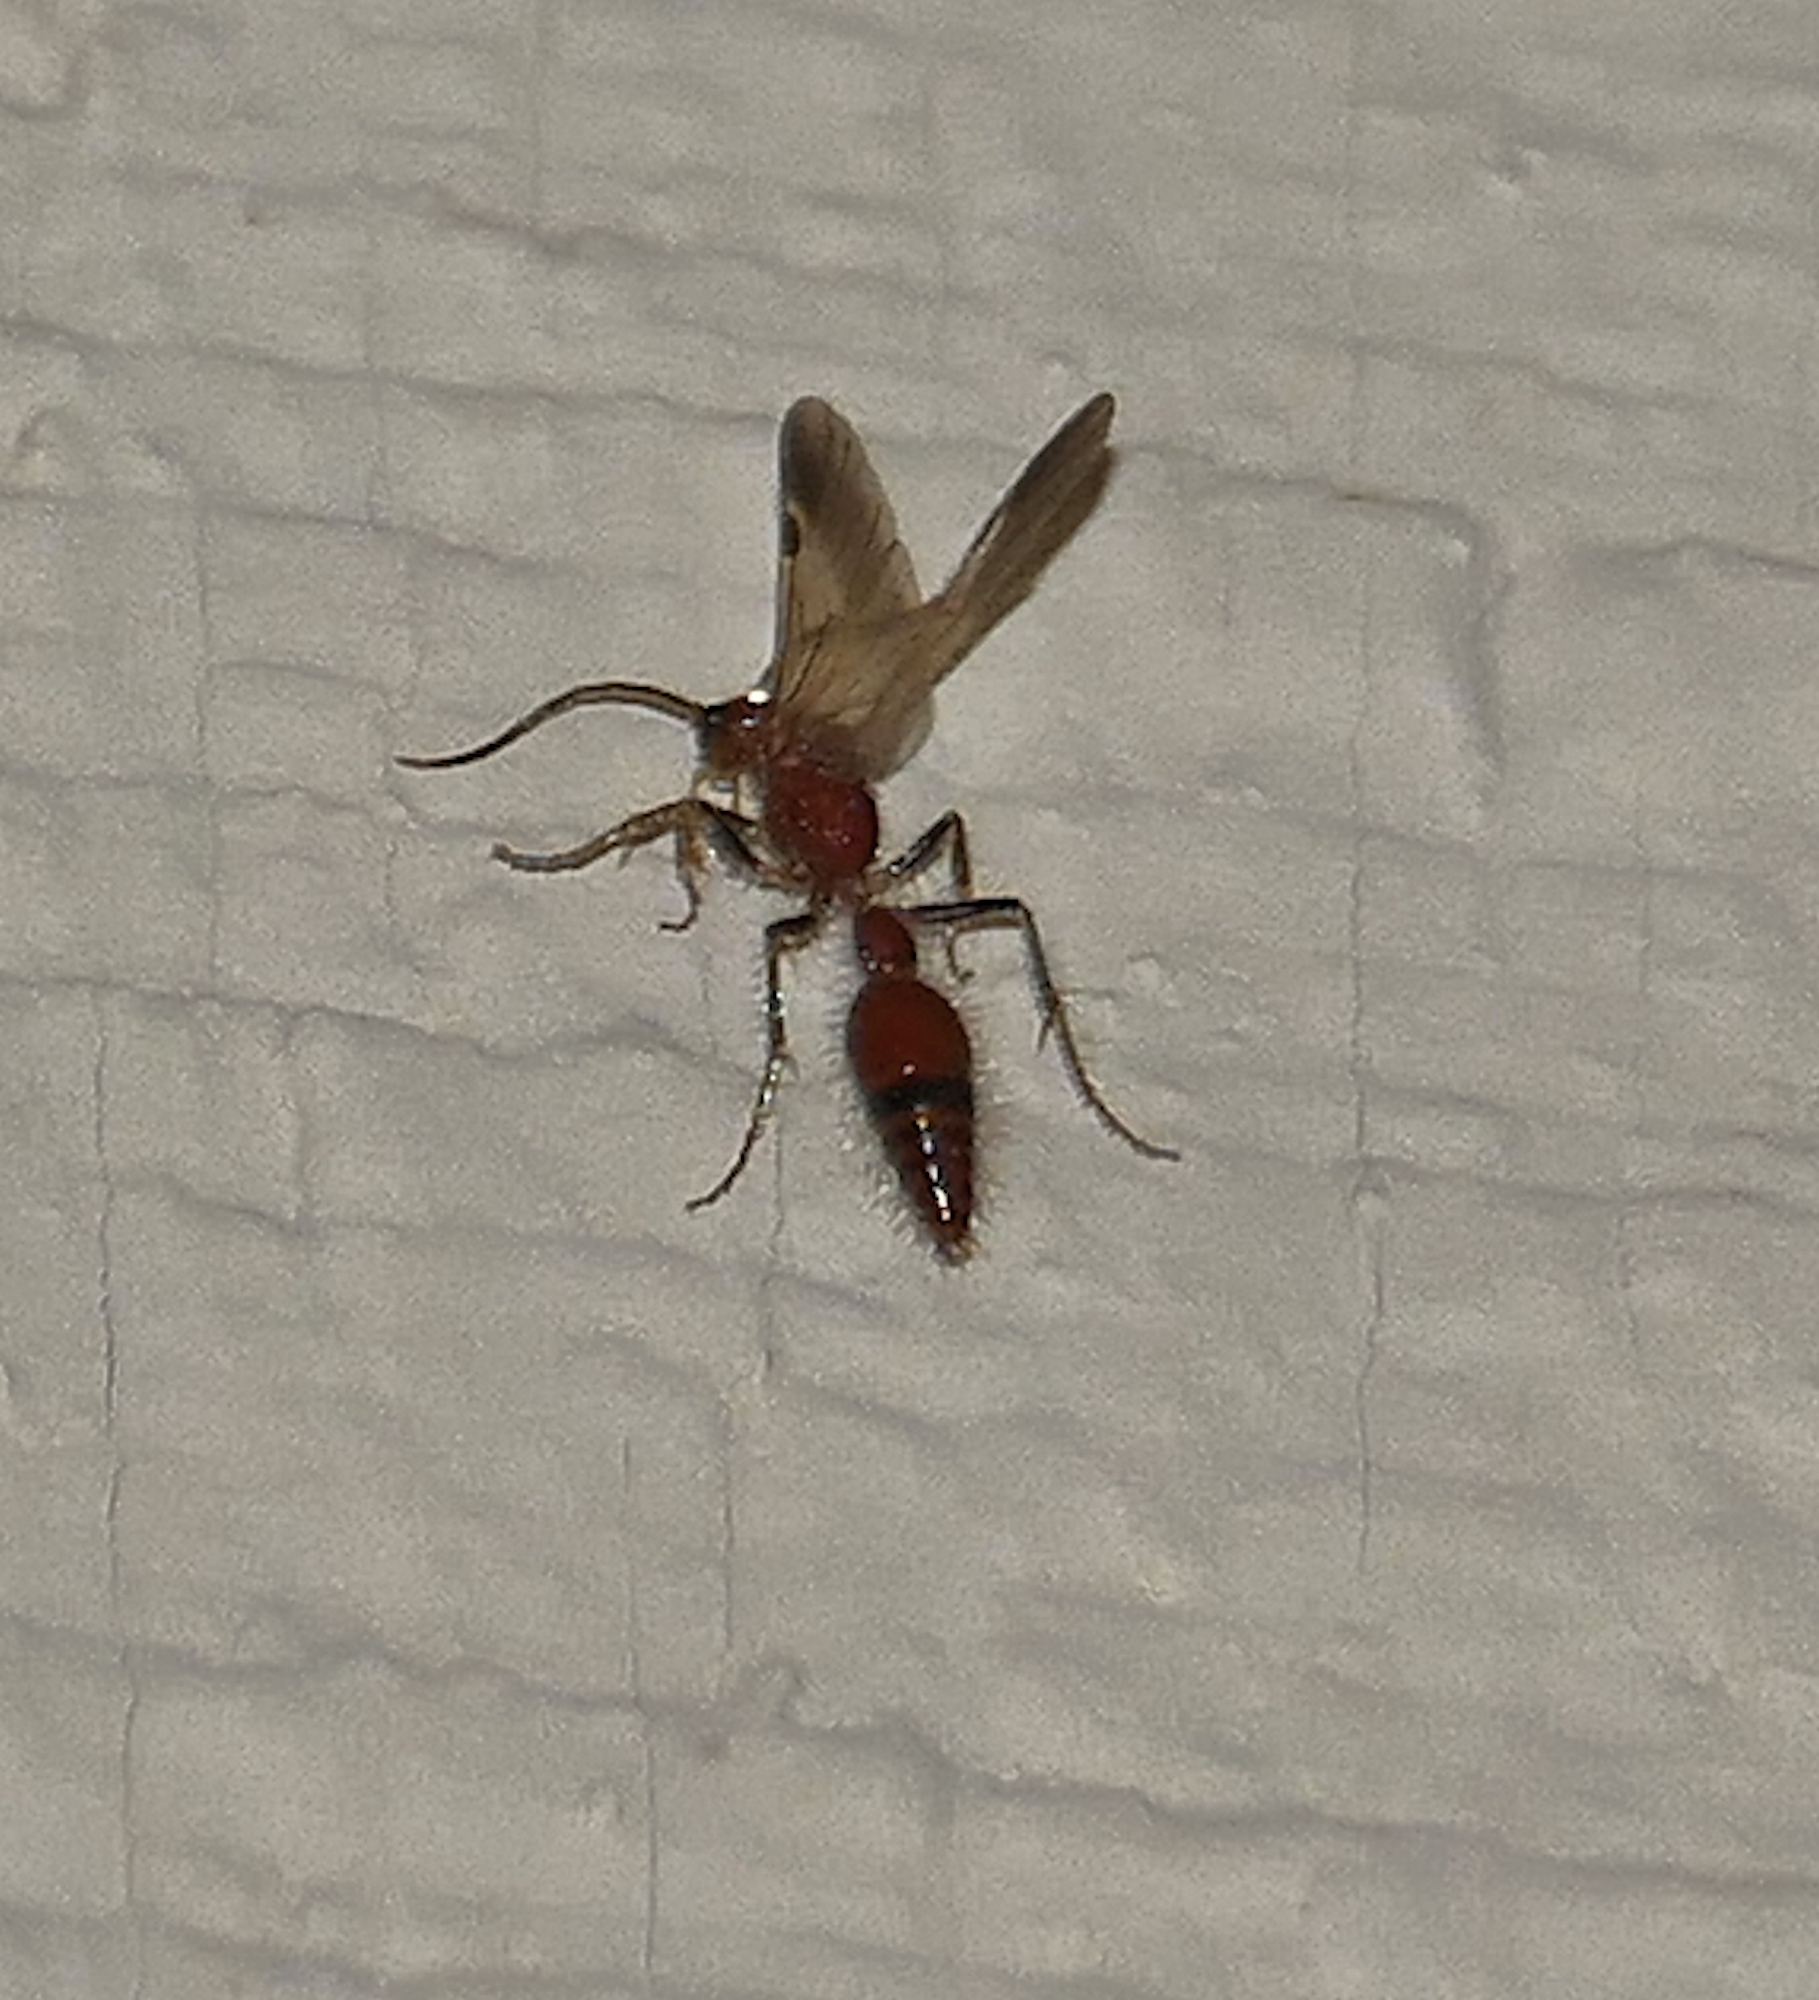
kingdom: Animalia
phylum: Arthropoda
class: Insecta
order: Hymenoptera
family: Chyphotidae
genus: Chyphotes
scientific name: Chyphotes
